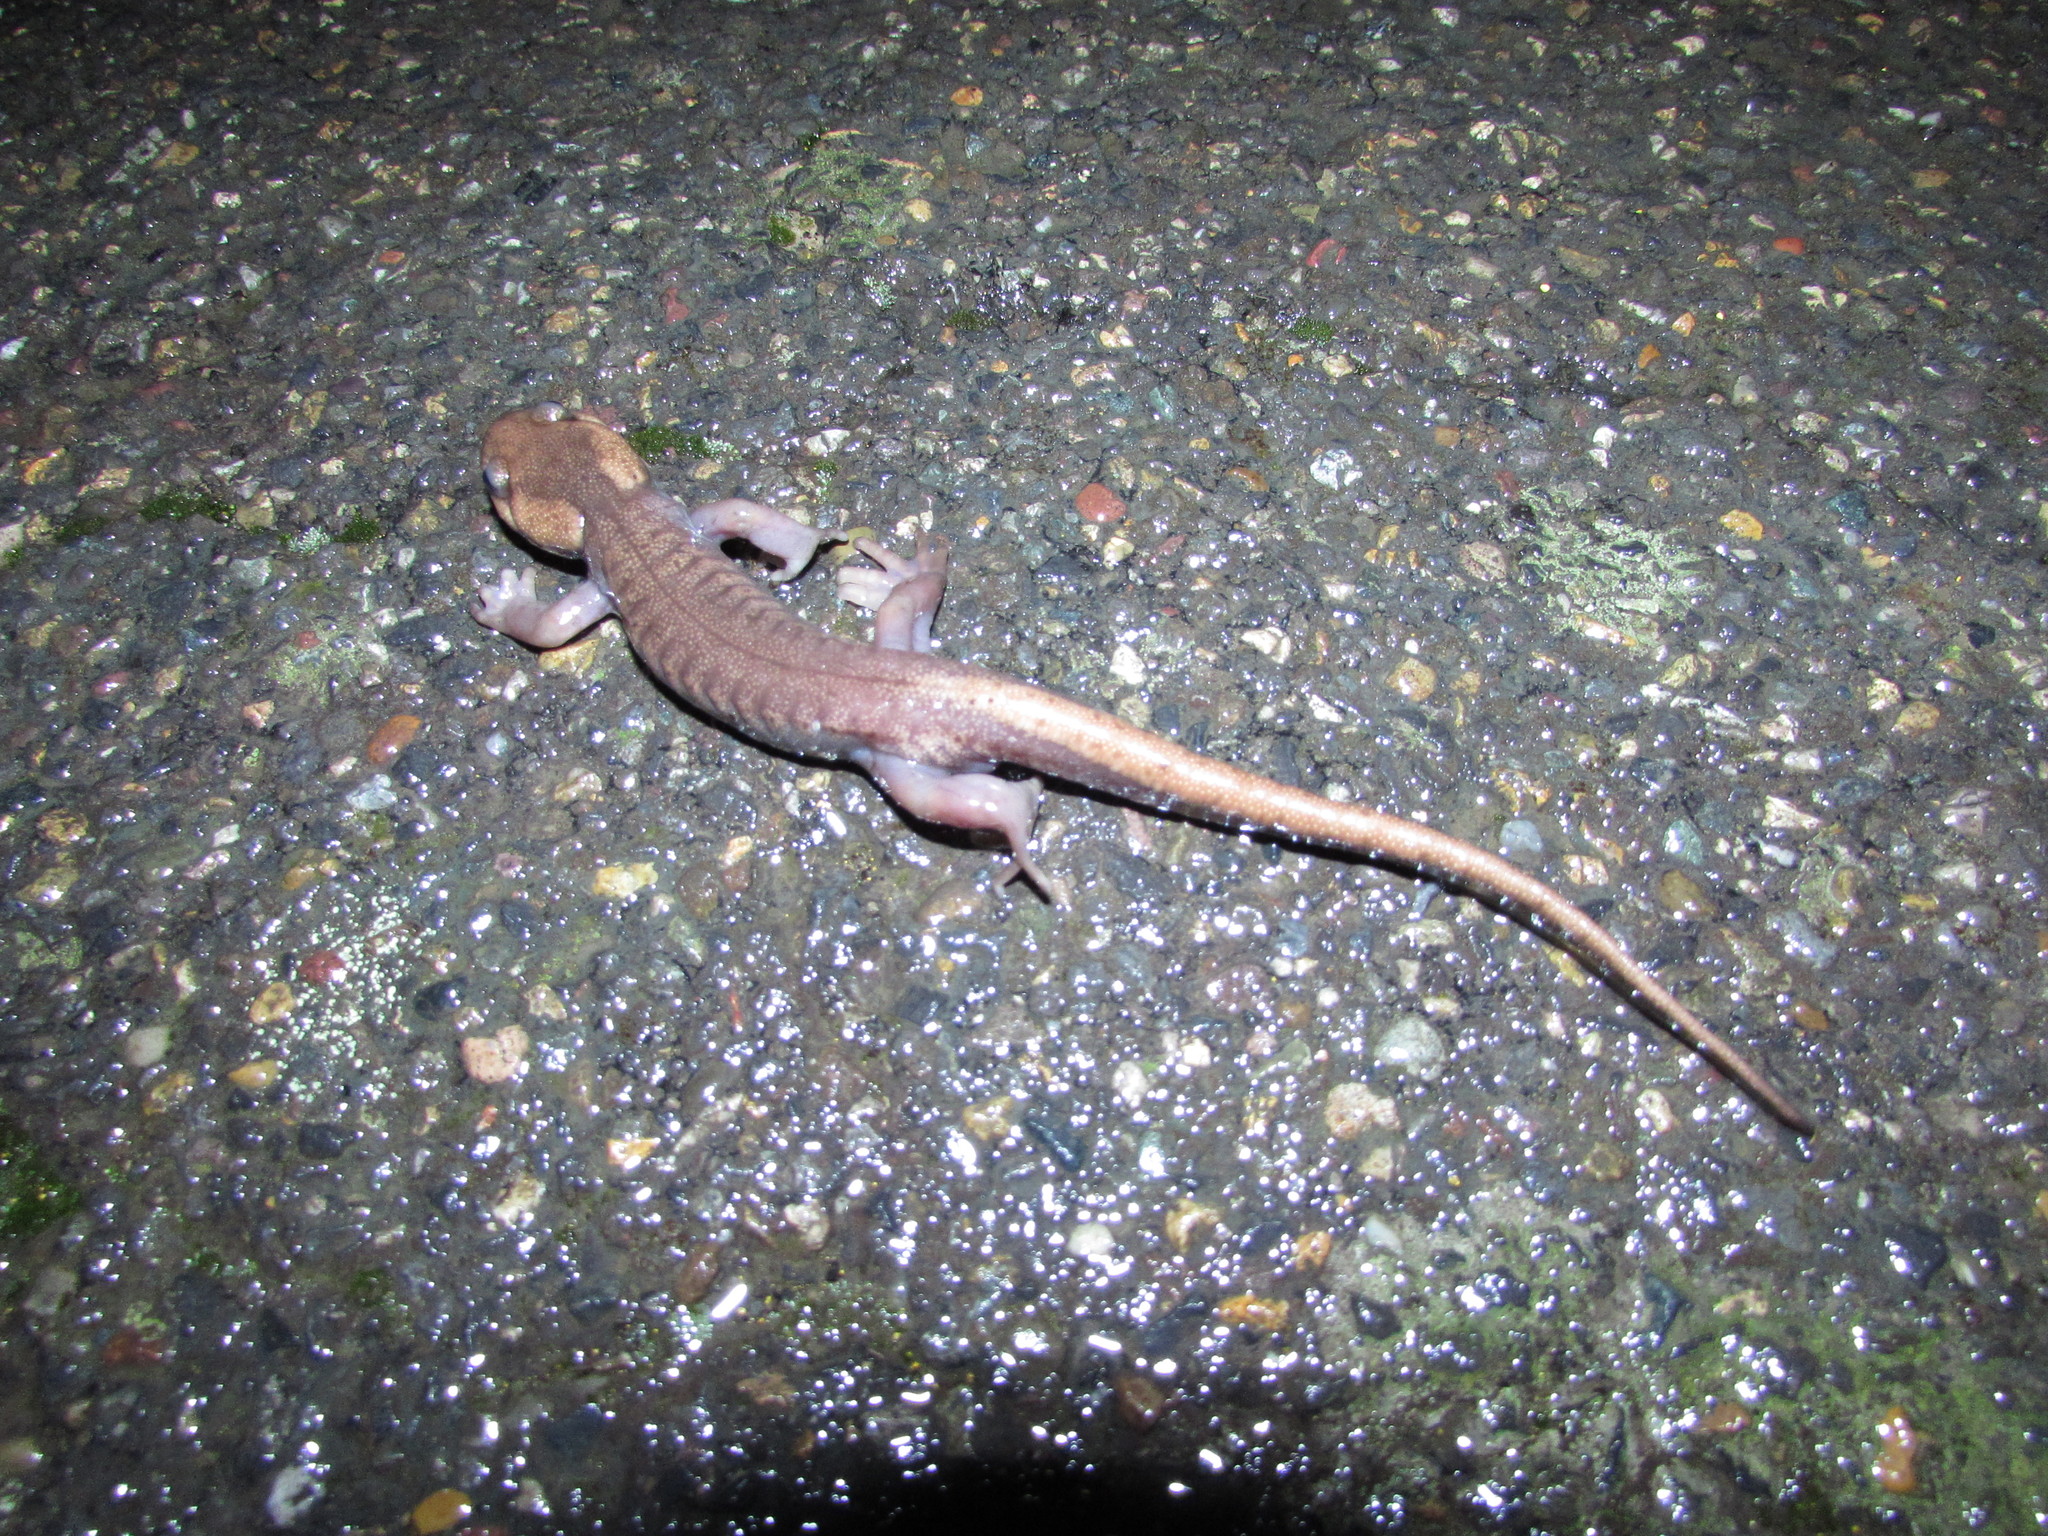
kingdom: Animalia
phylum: Chordata
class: Amphibia
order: Caudata
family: Ambystomatidae
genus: Ambystoma
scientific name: Ambystoma gracile
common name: Northwestern salamander
